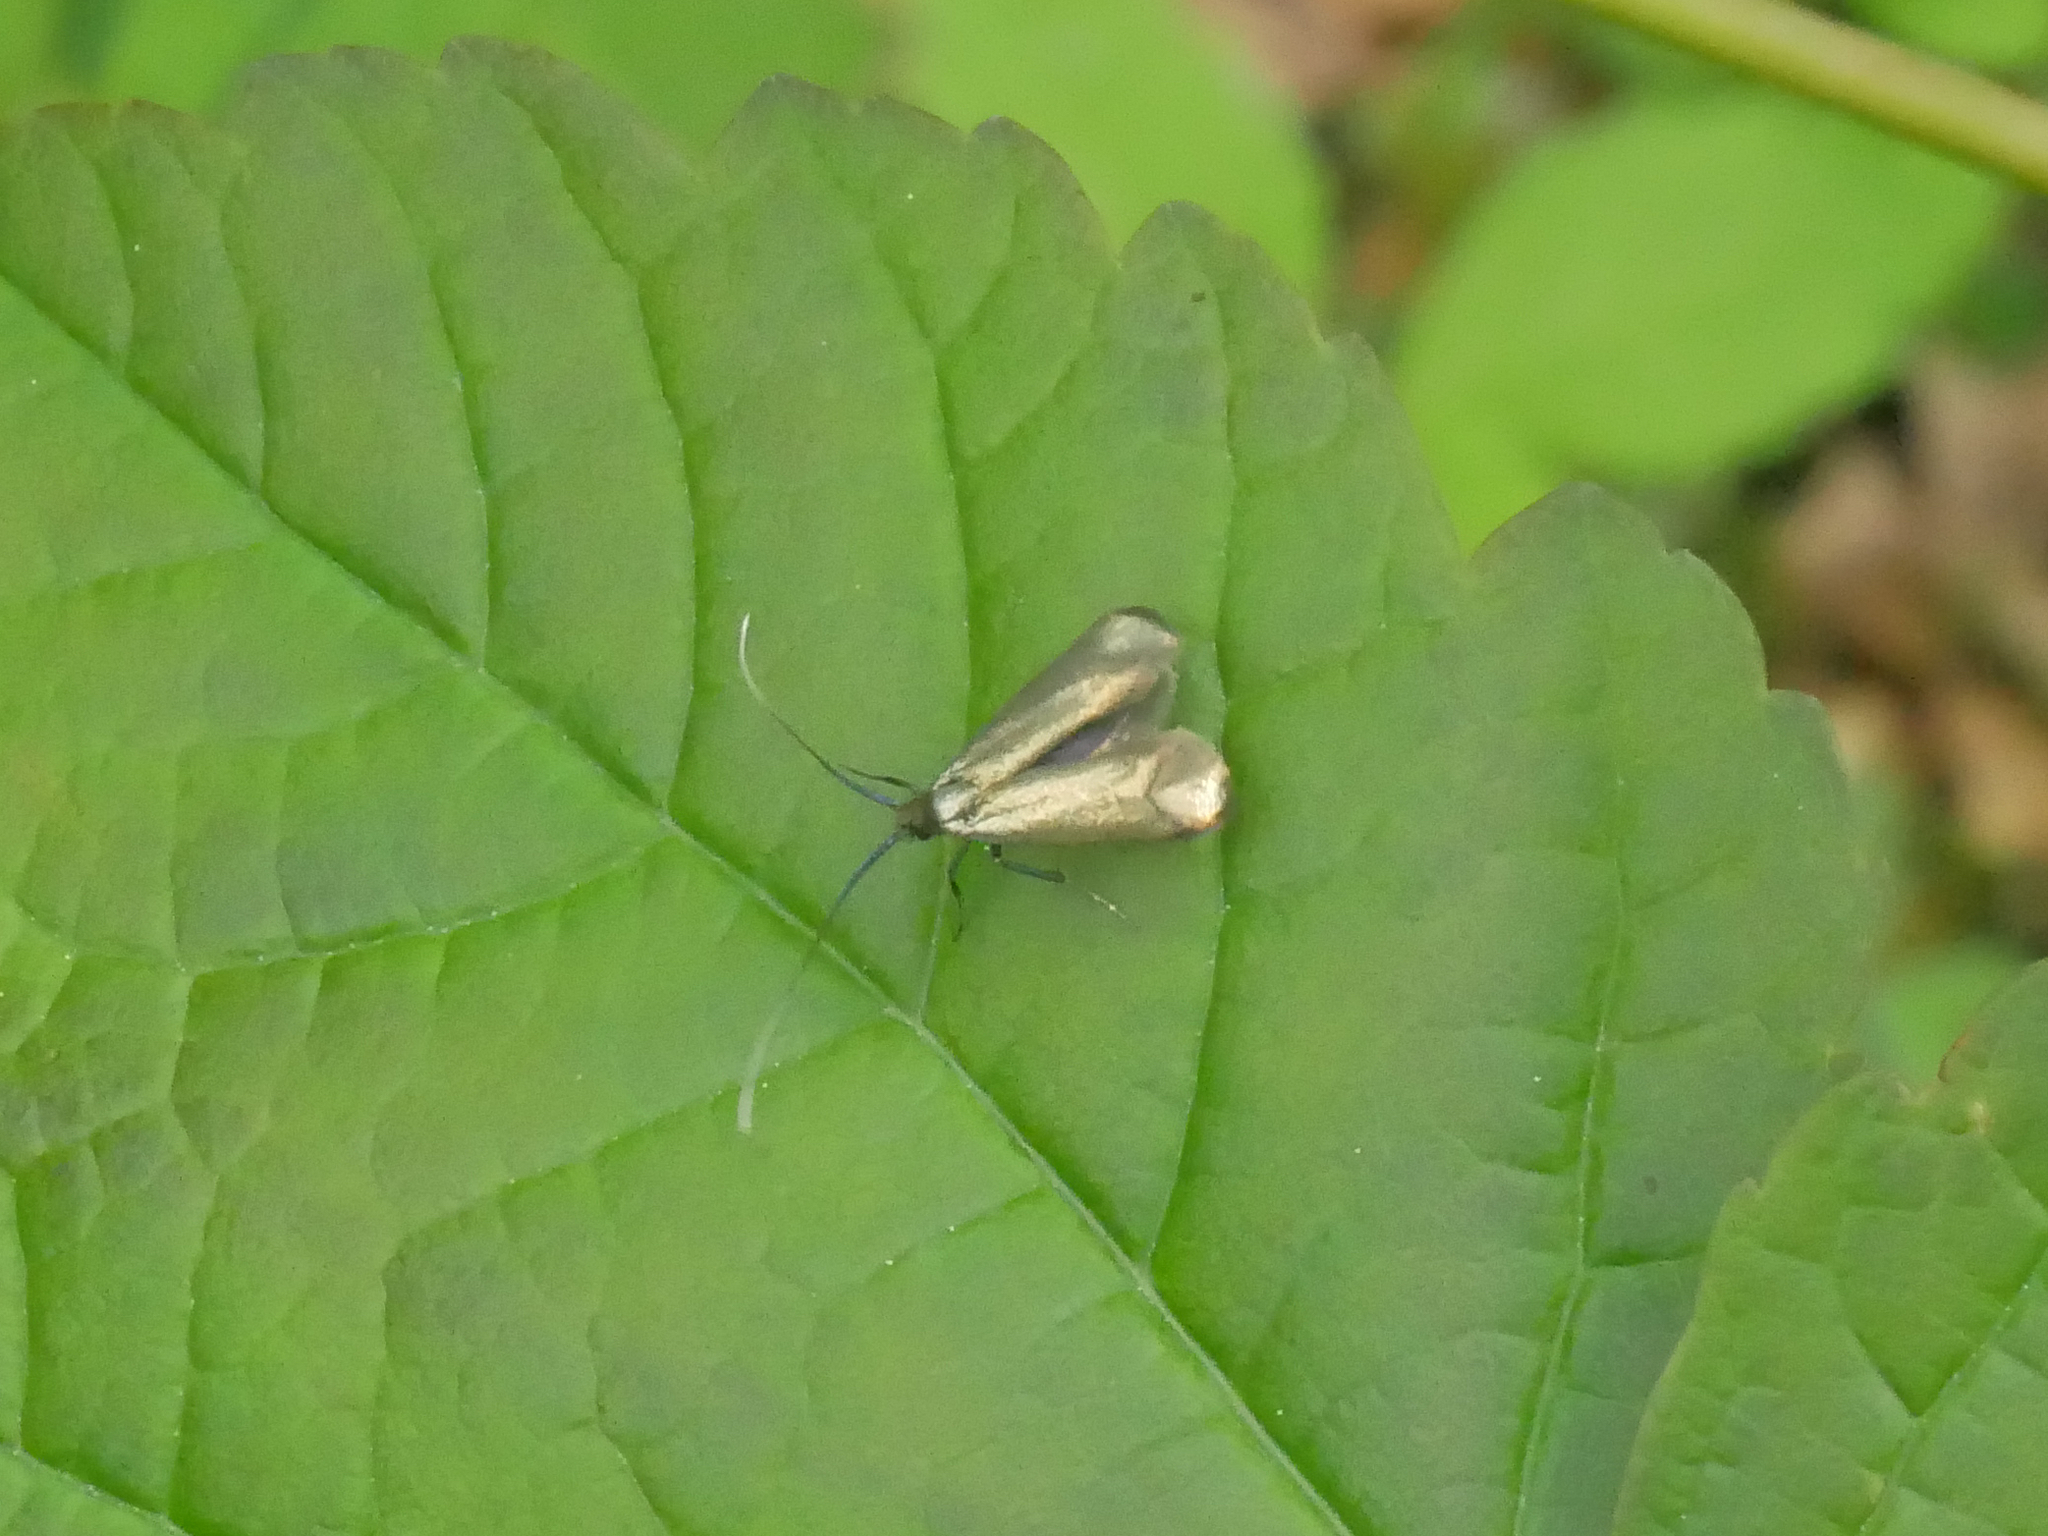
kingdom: Animalia
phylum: Arthropoda
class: Insecta
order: Lepidoptera
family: Adelidae
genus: Adela
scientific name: Adela viridella
